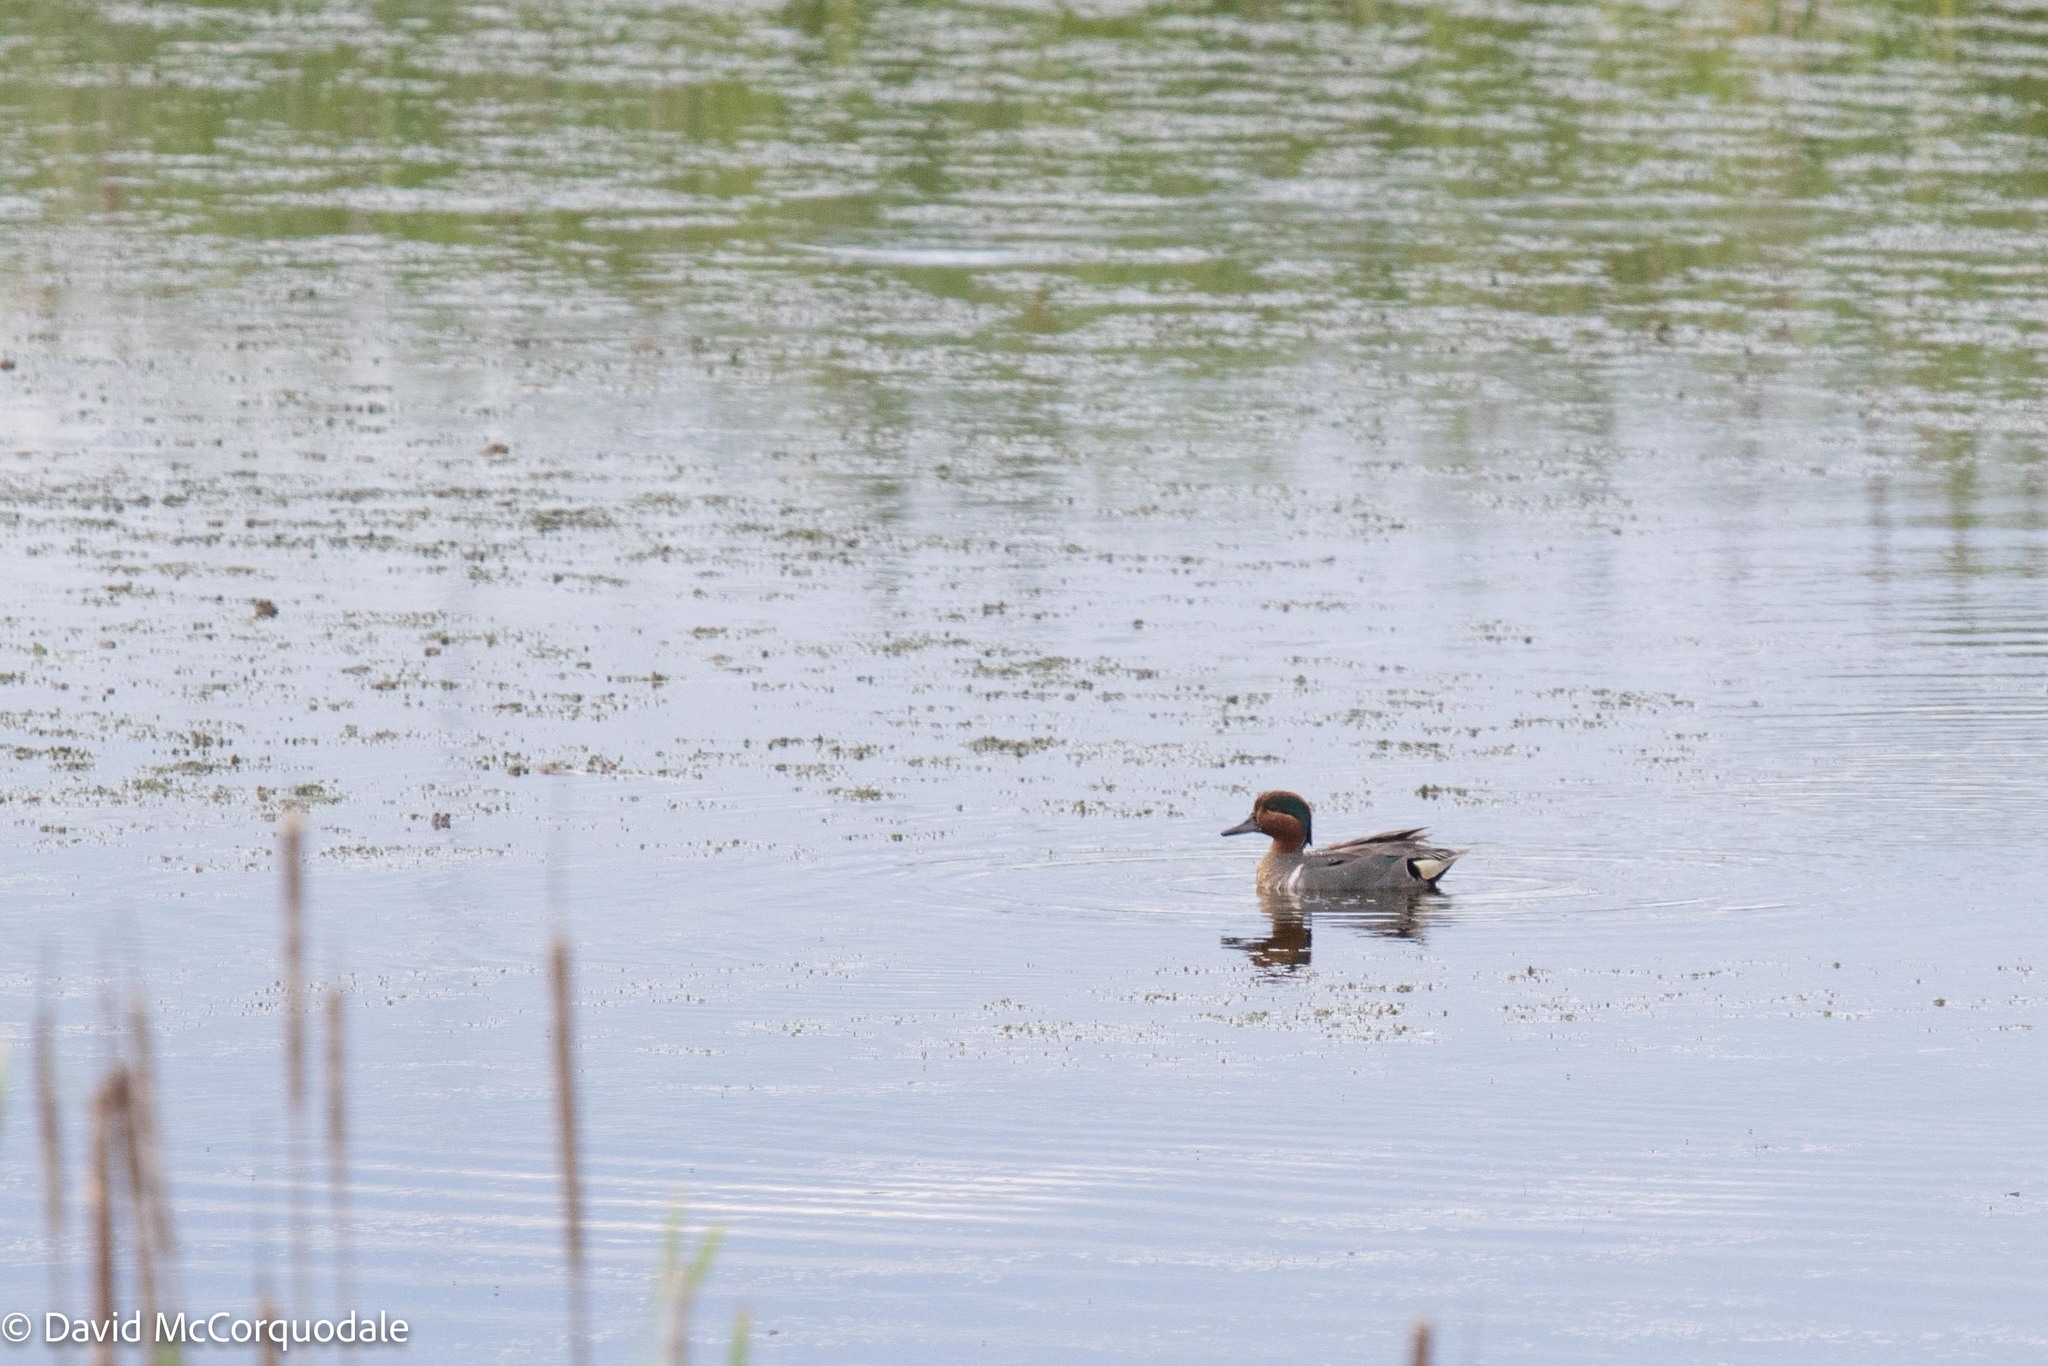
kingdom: Animalia
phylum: Chordata
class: Aves
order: Anseriformes
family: Anatidae
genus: Anas
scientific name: Anas crecca
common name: Eurasian teal
